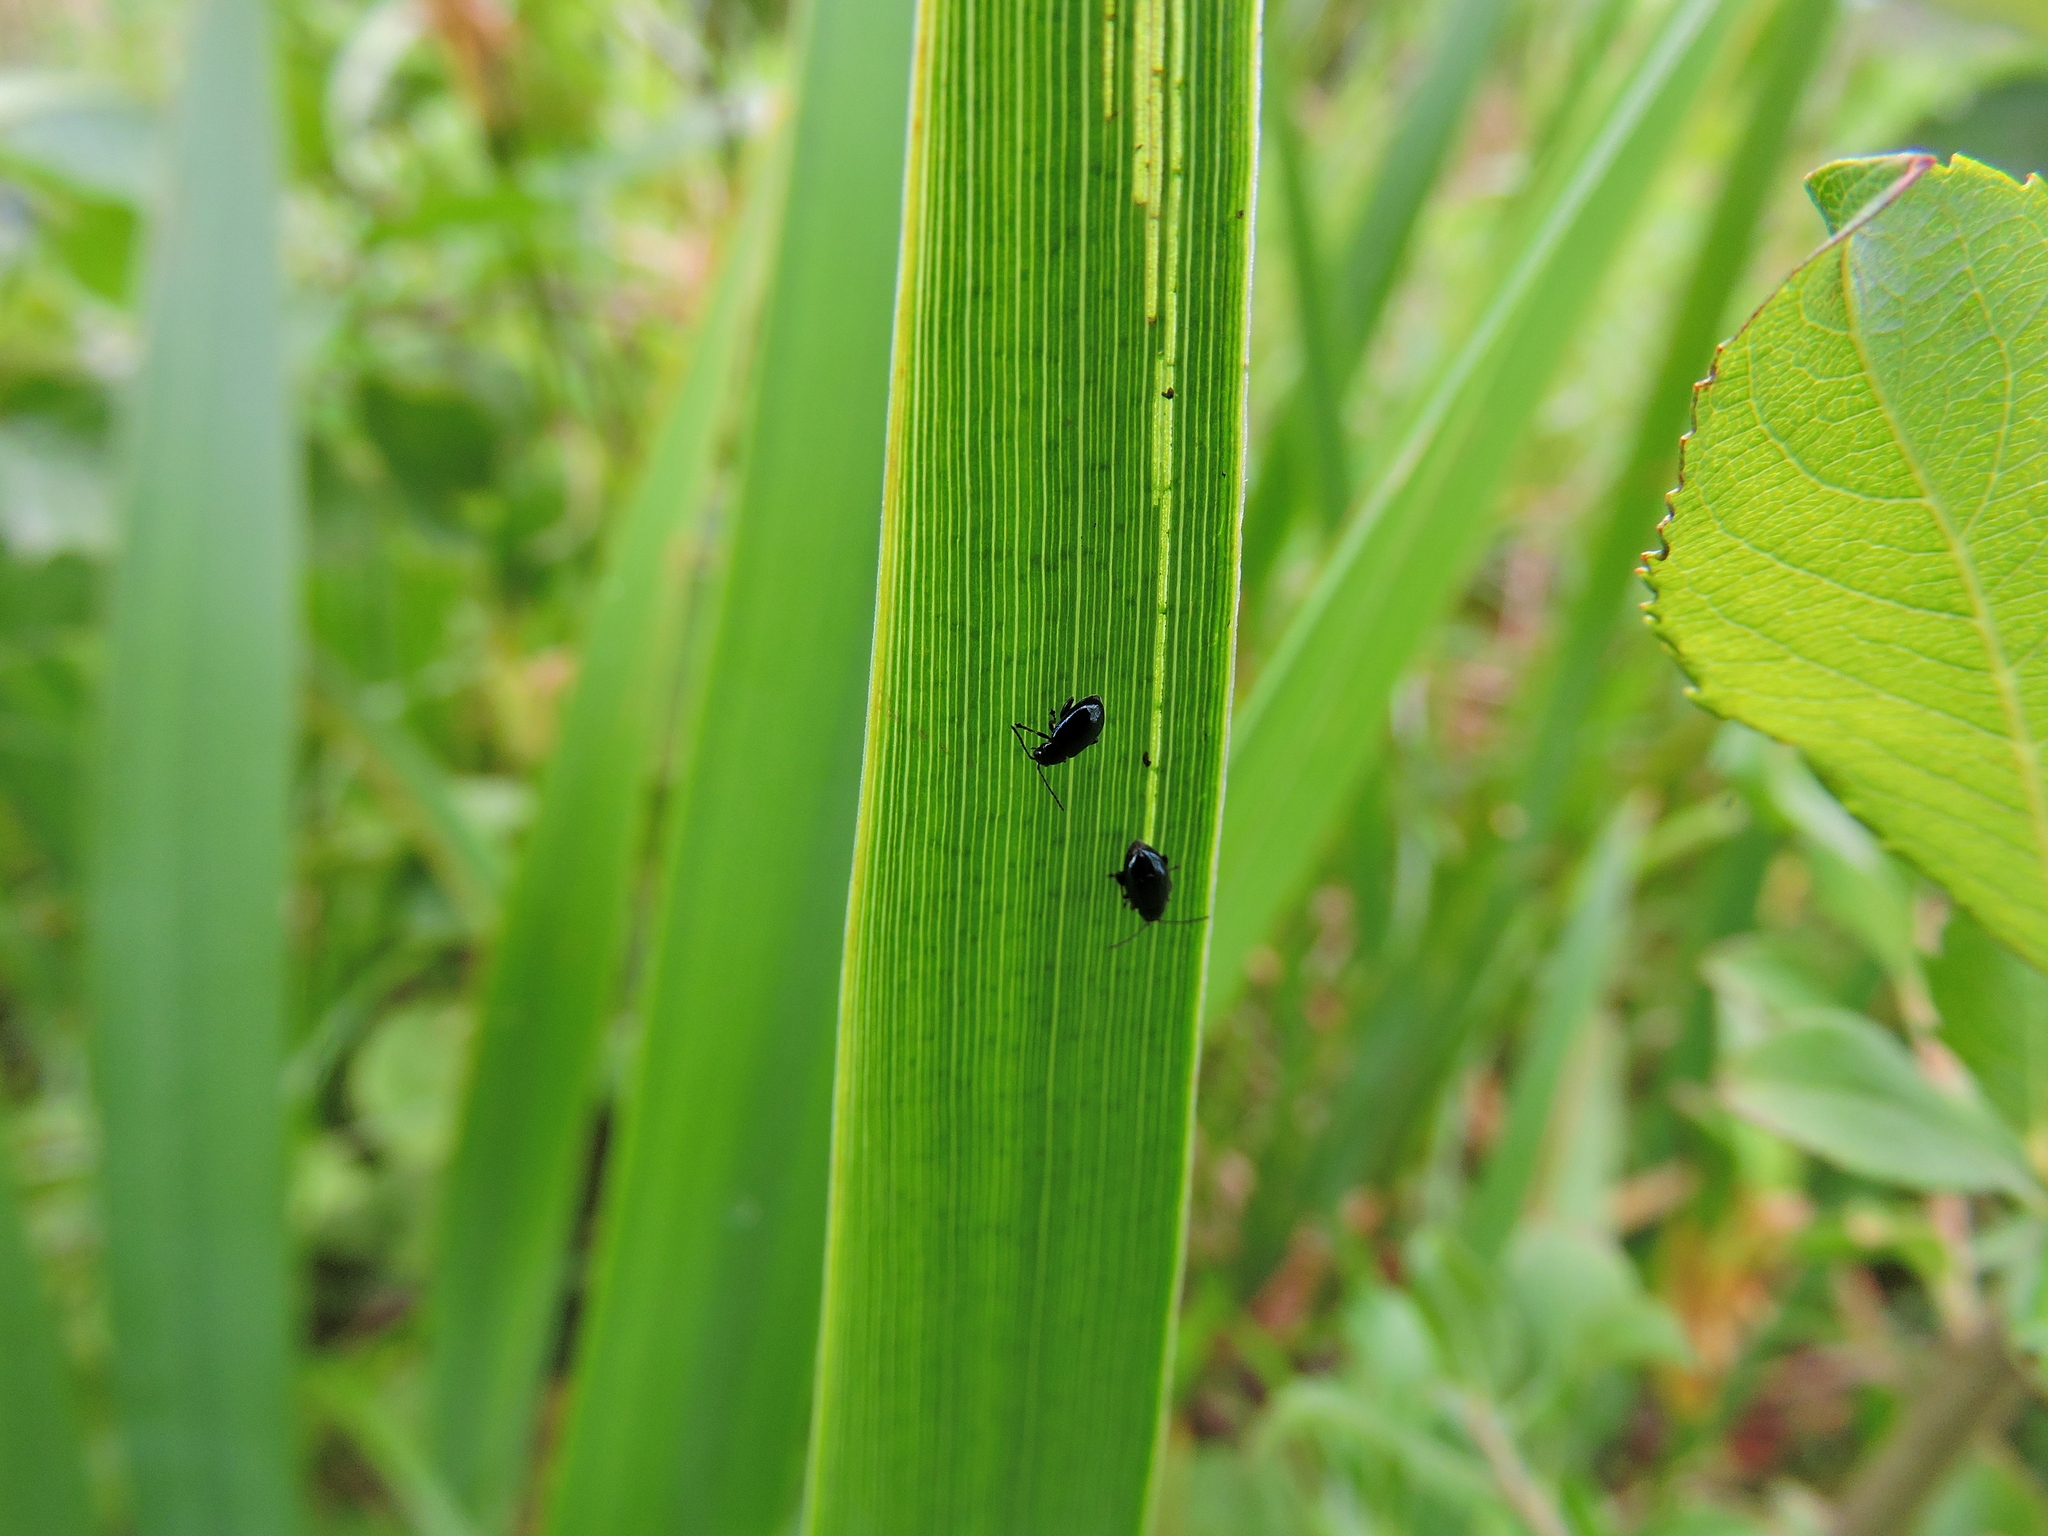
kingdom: Animalia
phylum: Arthropoda
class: Insecta
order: Coleoptera
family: Chrysomelidae
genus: Aphthona
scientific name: Aphthona nonstriata
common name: Iris flea beetle
